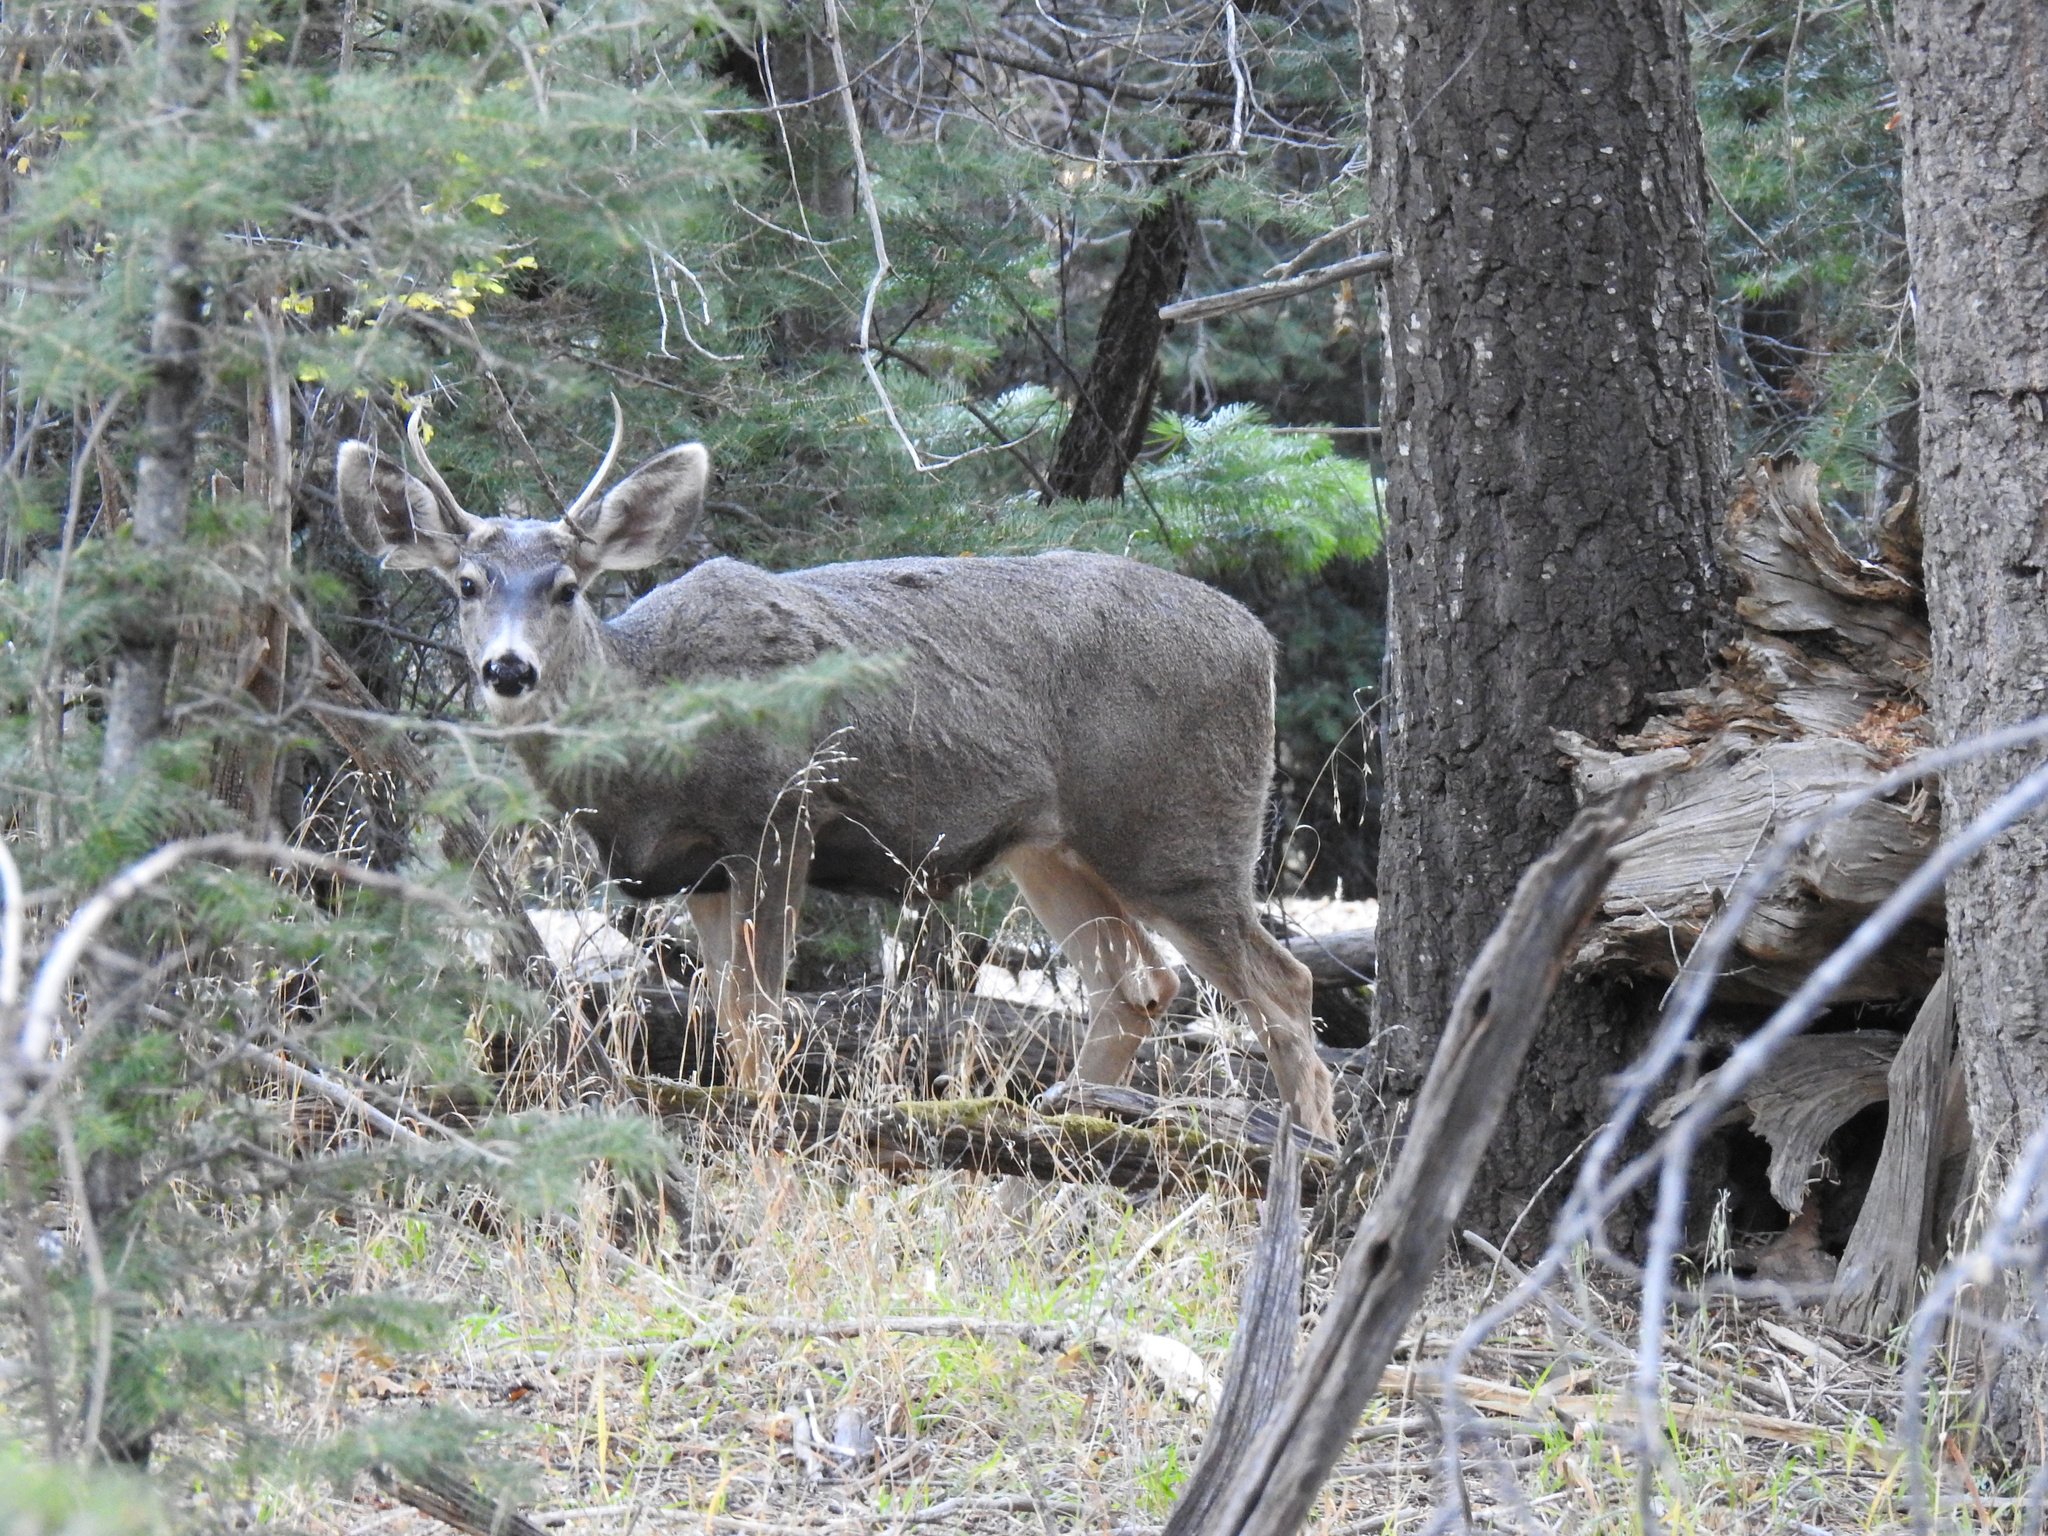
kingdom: Animalia
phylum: Chordata
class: Mammalia
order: Artiodactyla
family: Cervidae
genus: Odocoileus
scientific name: Odocoileus hemionus
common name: Mule deer
